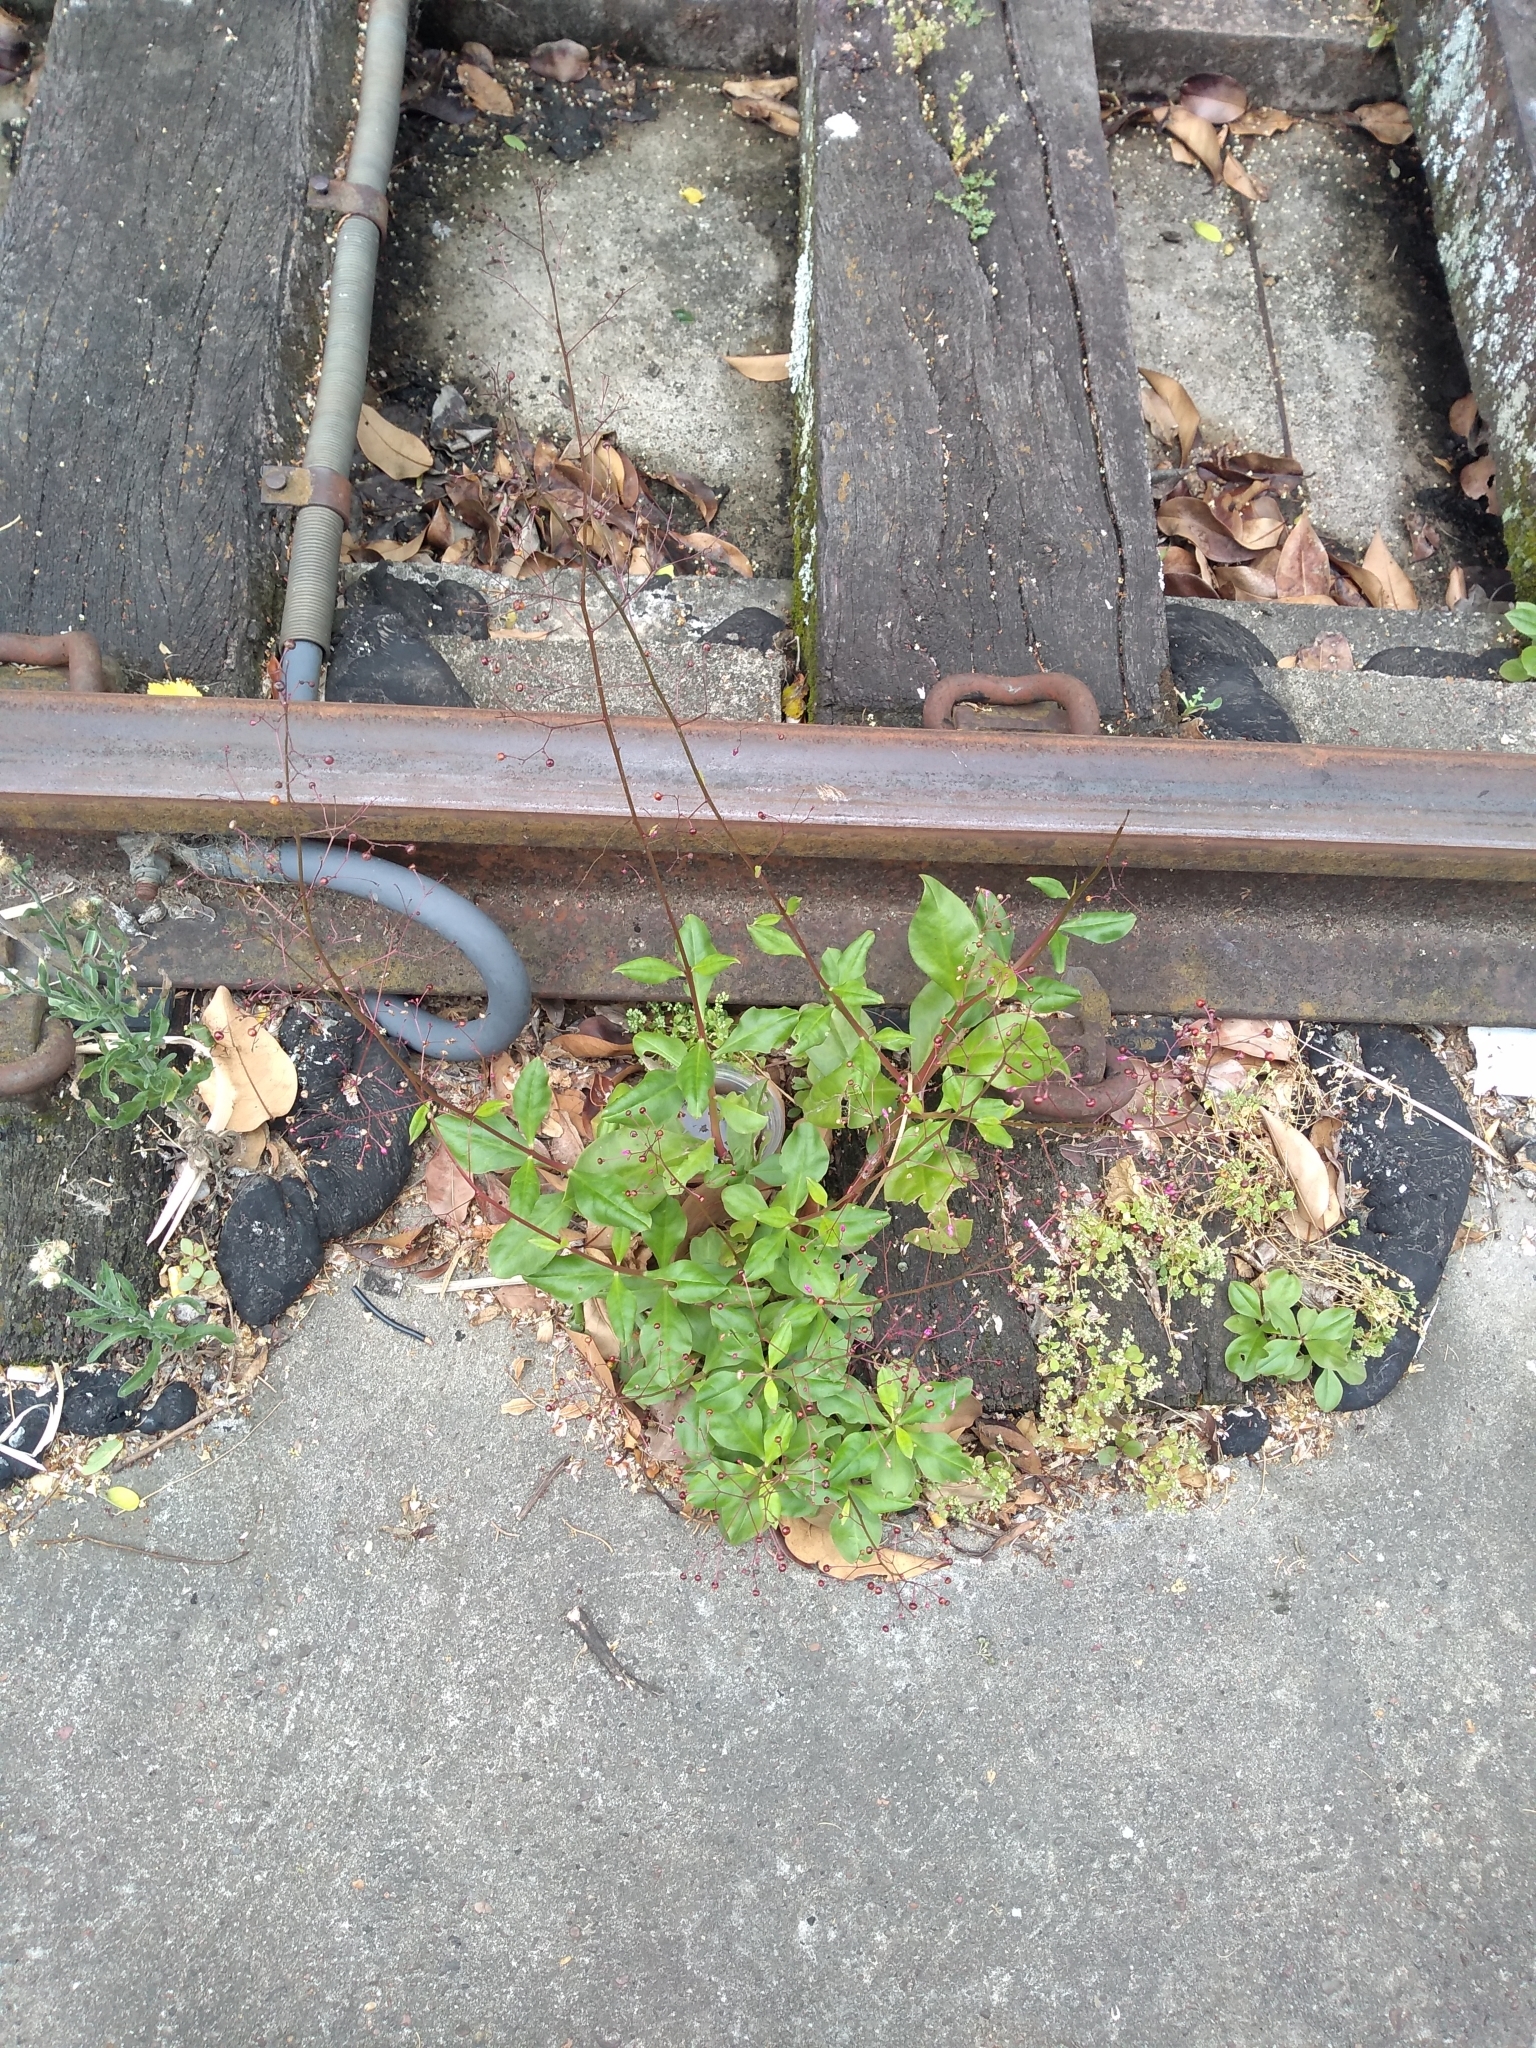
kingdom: Plantae
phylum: Tracheophyta
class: Magnoliopsida
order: Caryophyllales
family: Talinaceae
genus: Talinum
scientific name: Talinum paniculatum
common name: Jewels of opar
